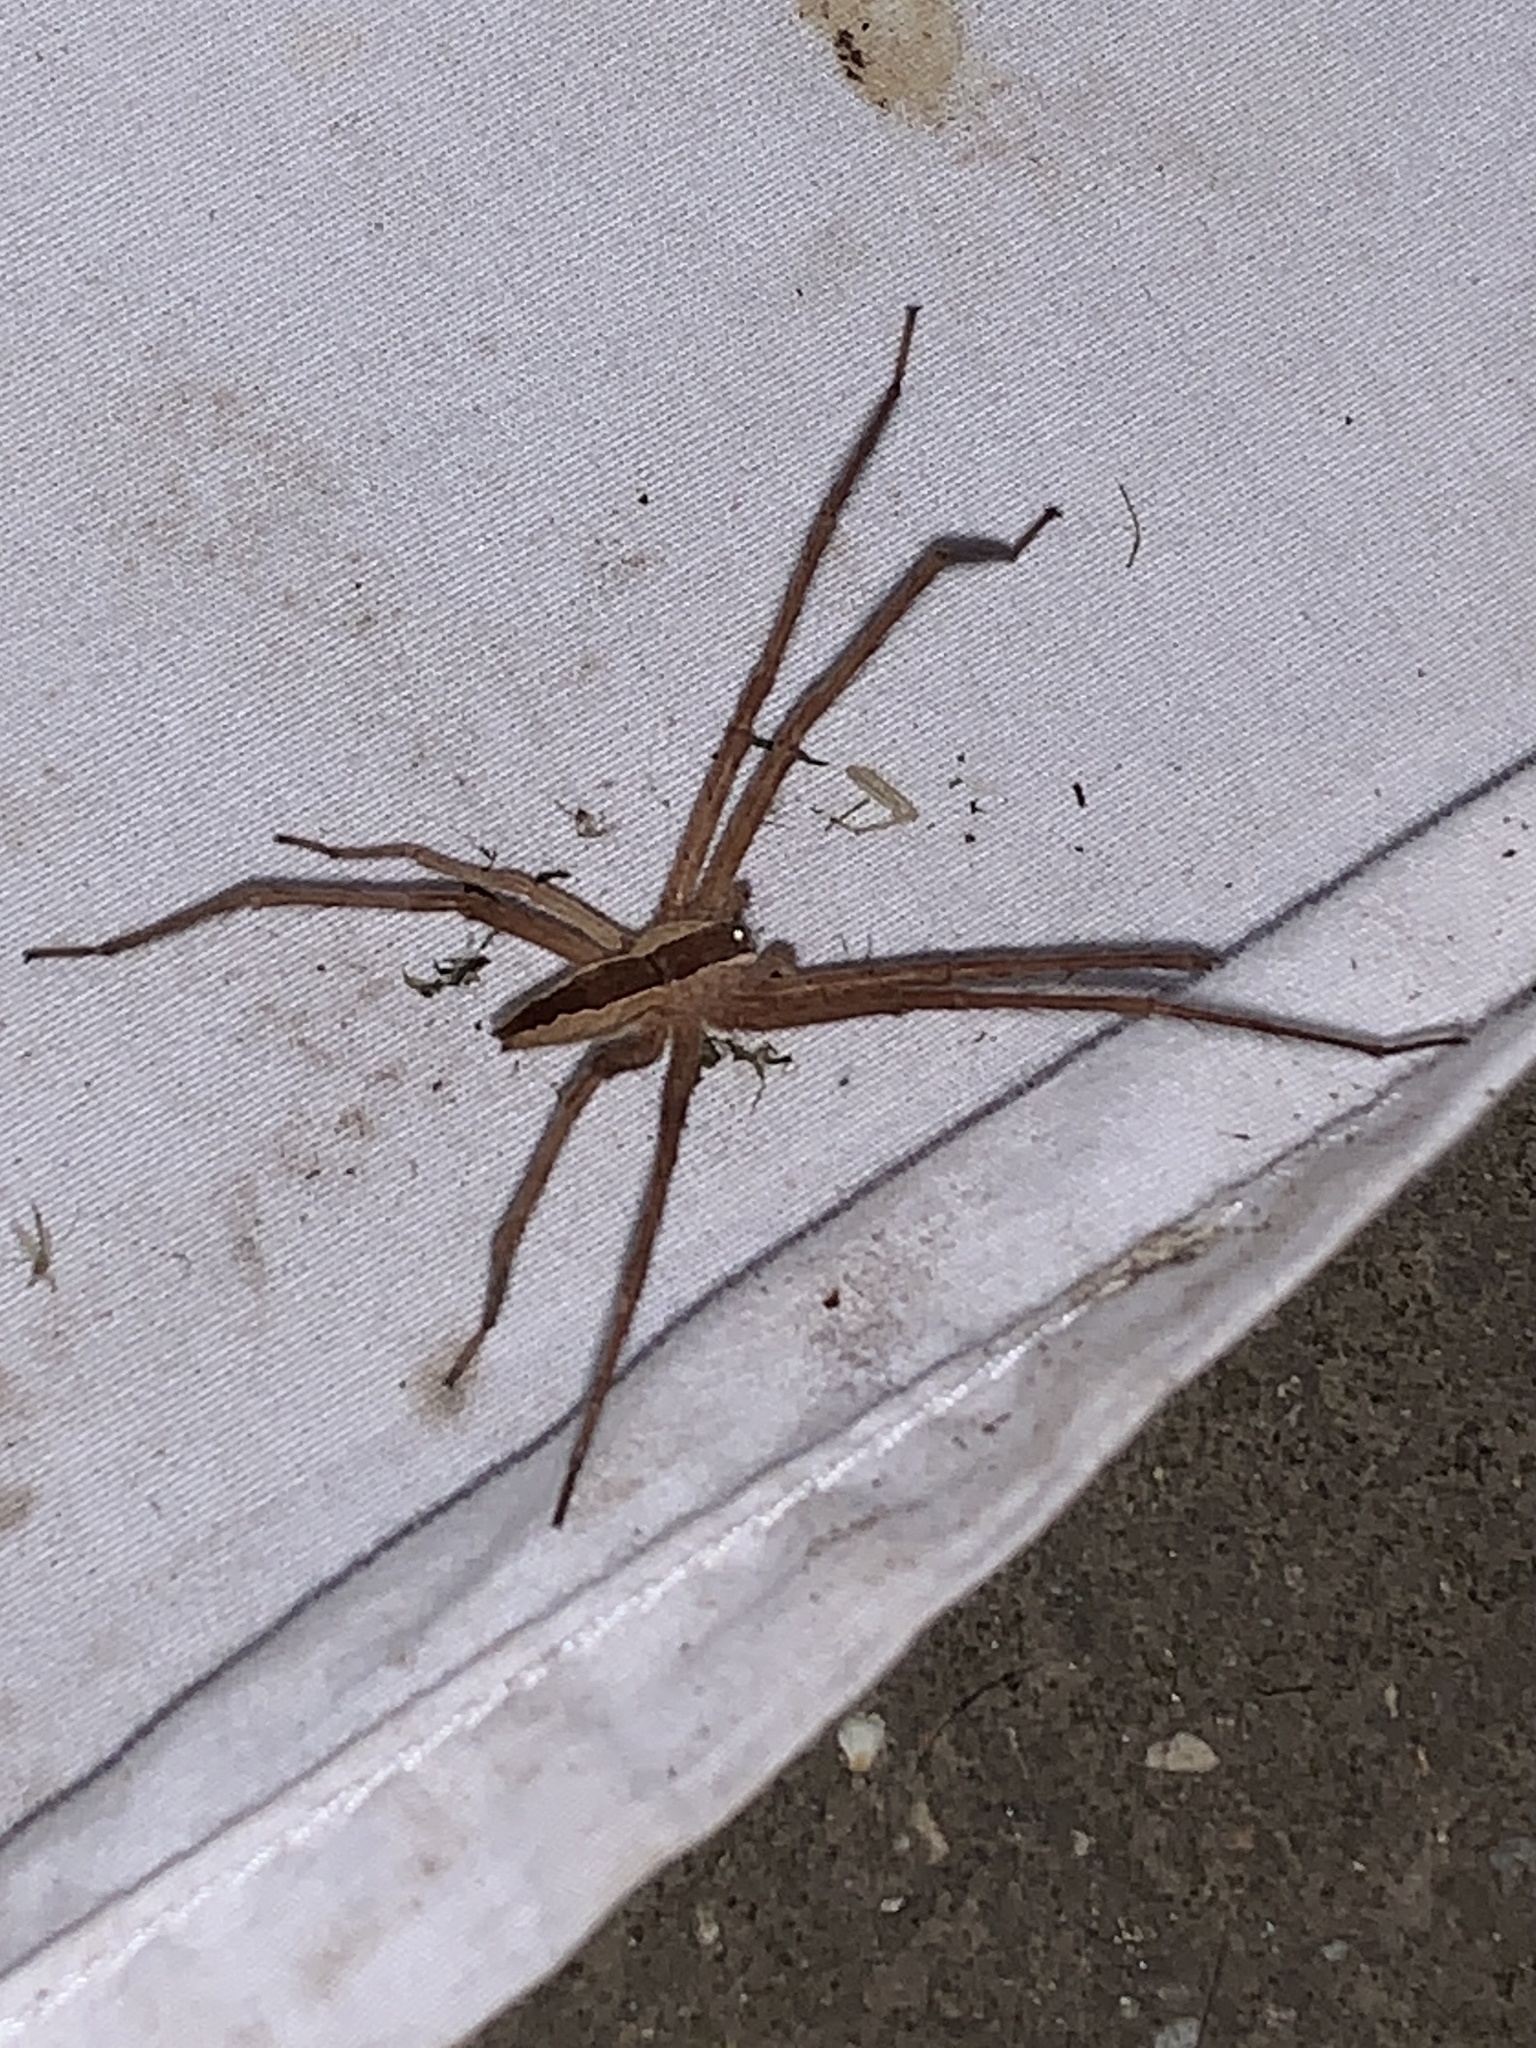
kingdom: Animalia
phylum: Arthropoda
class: Arachnida
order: Araneae
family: Pisauridae
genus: Pisaurina
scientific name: Pisaurina mira
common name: American nursery web spider
